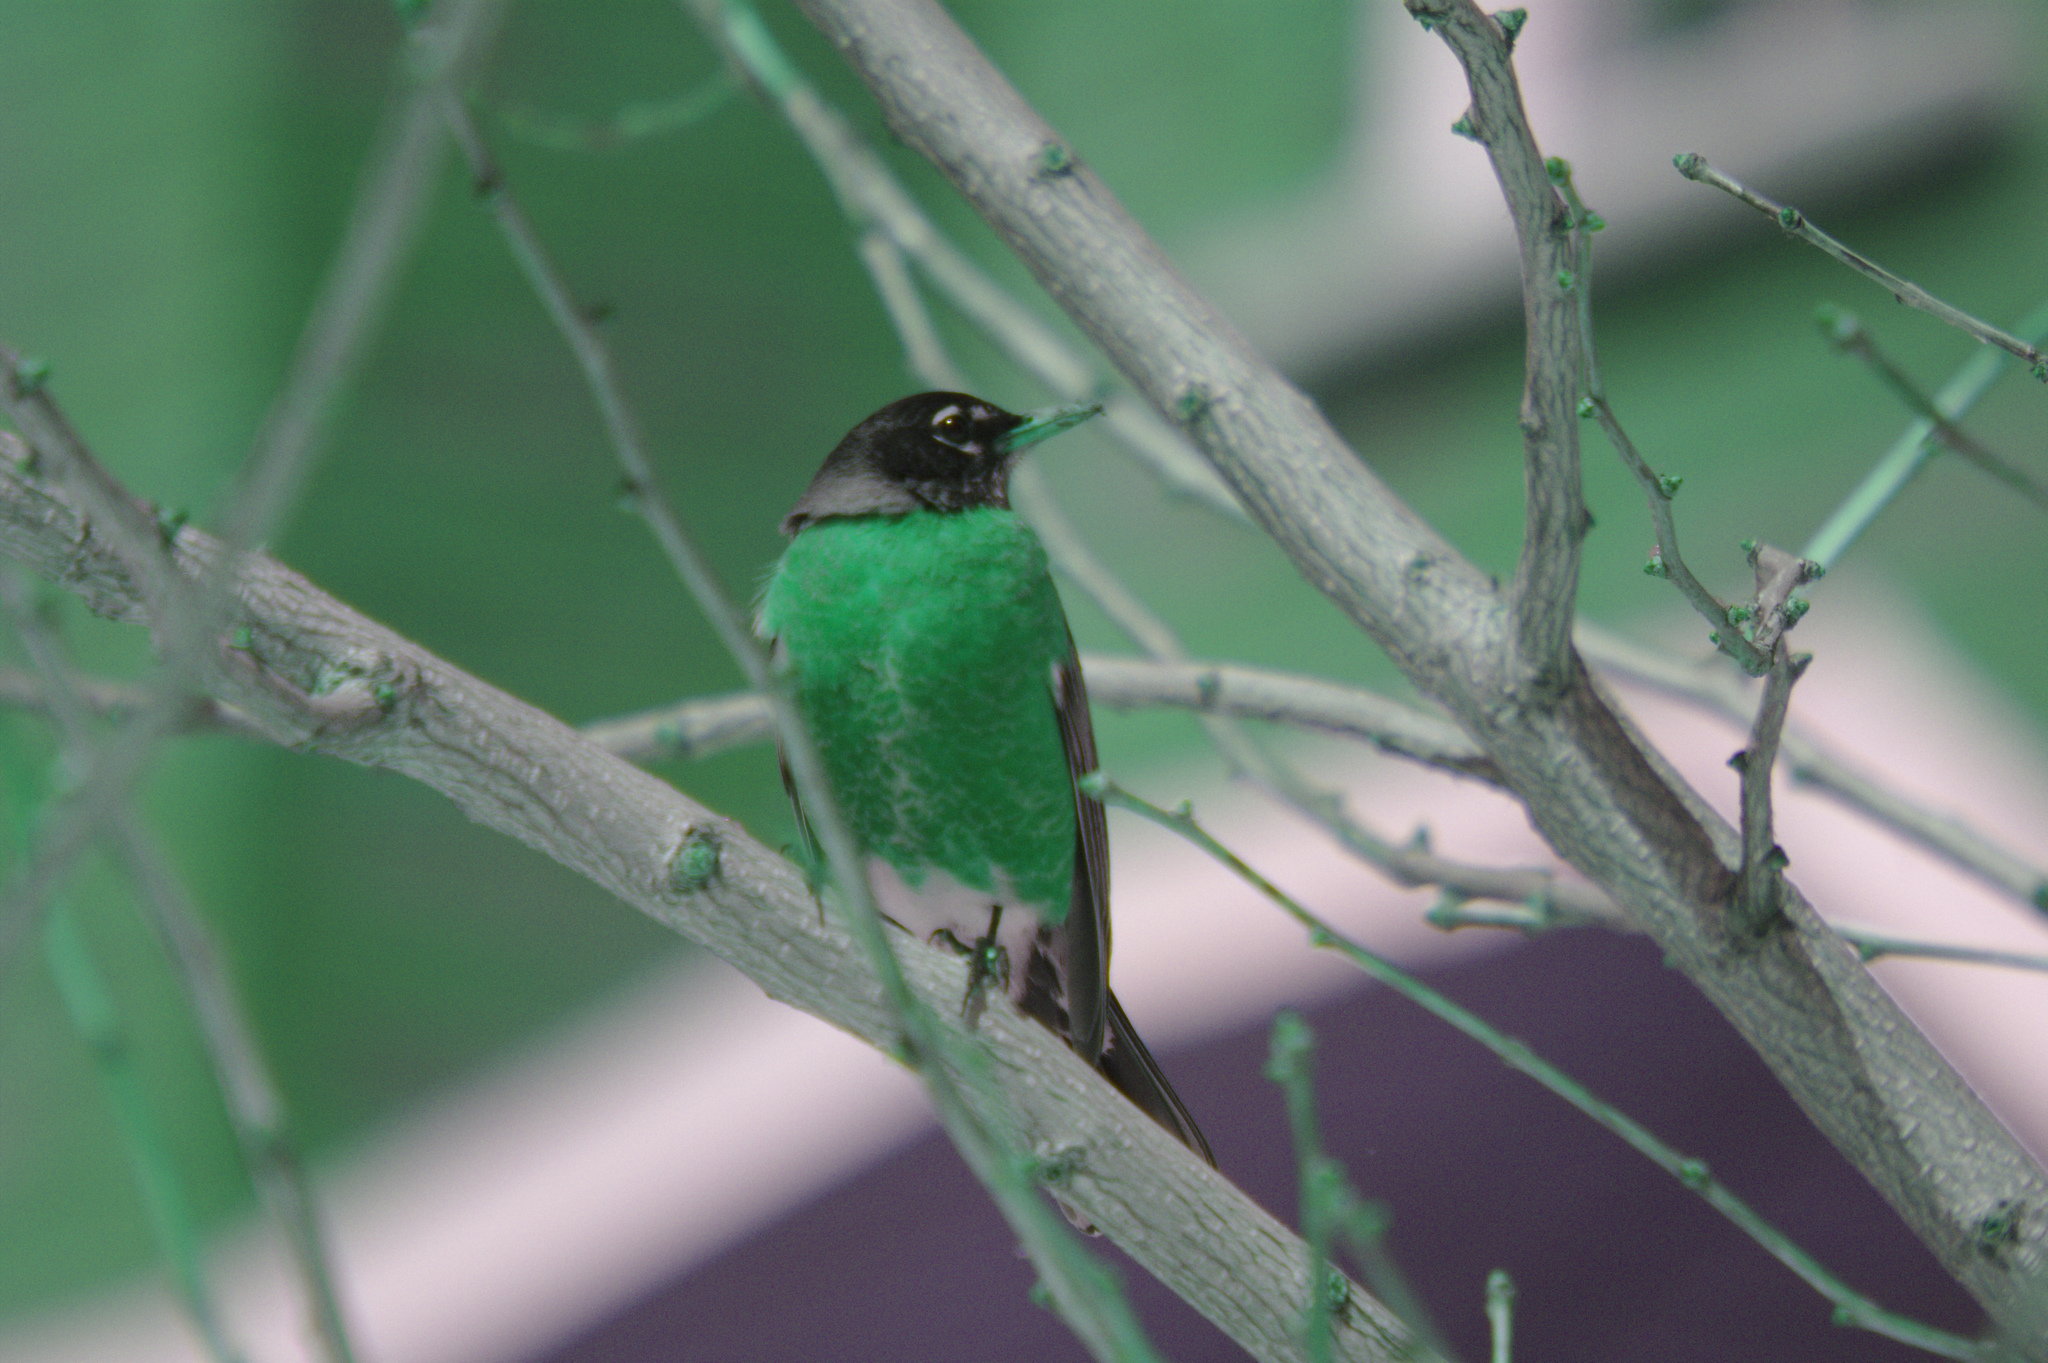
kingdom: Animalia
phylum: Chordata
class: Aves
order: Passeriformes
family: Turdidae
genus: Turdus
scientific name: Turdus migratorius
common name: American robin
